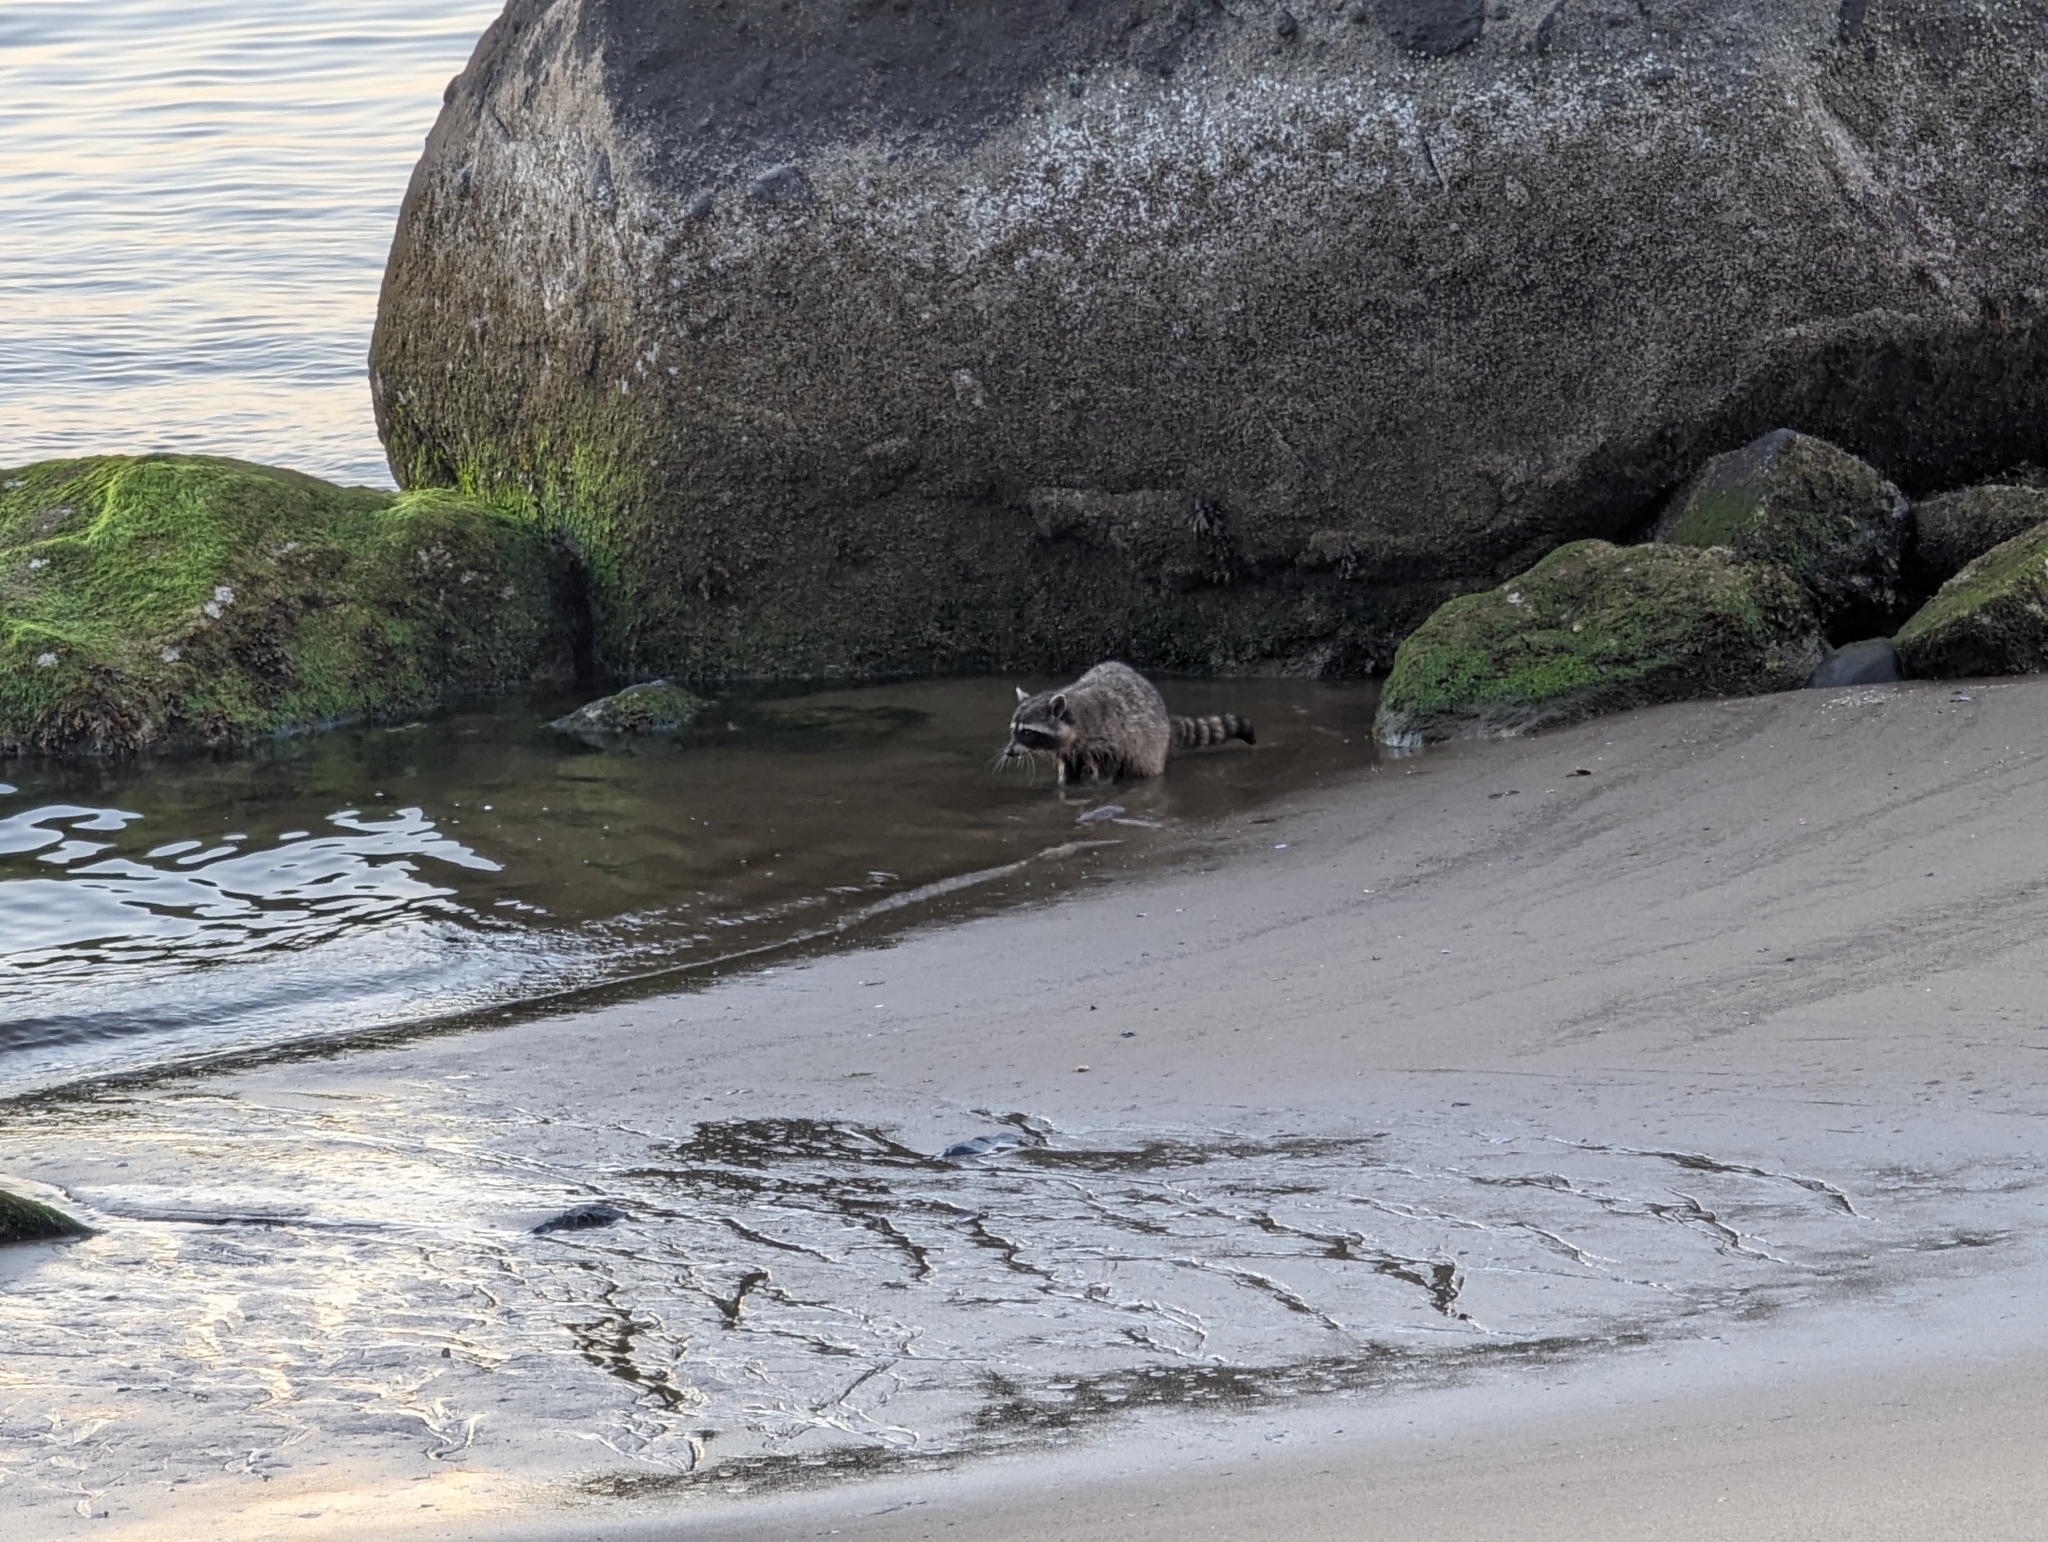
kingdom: Animalia
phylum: Chordata
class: Mammalia
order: Carnivora
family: Procyonidae
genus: Procyon
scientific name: Procyon lotor
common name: Raccoon
